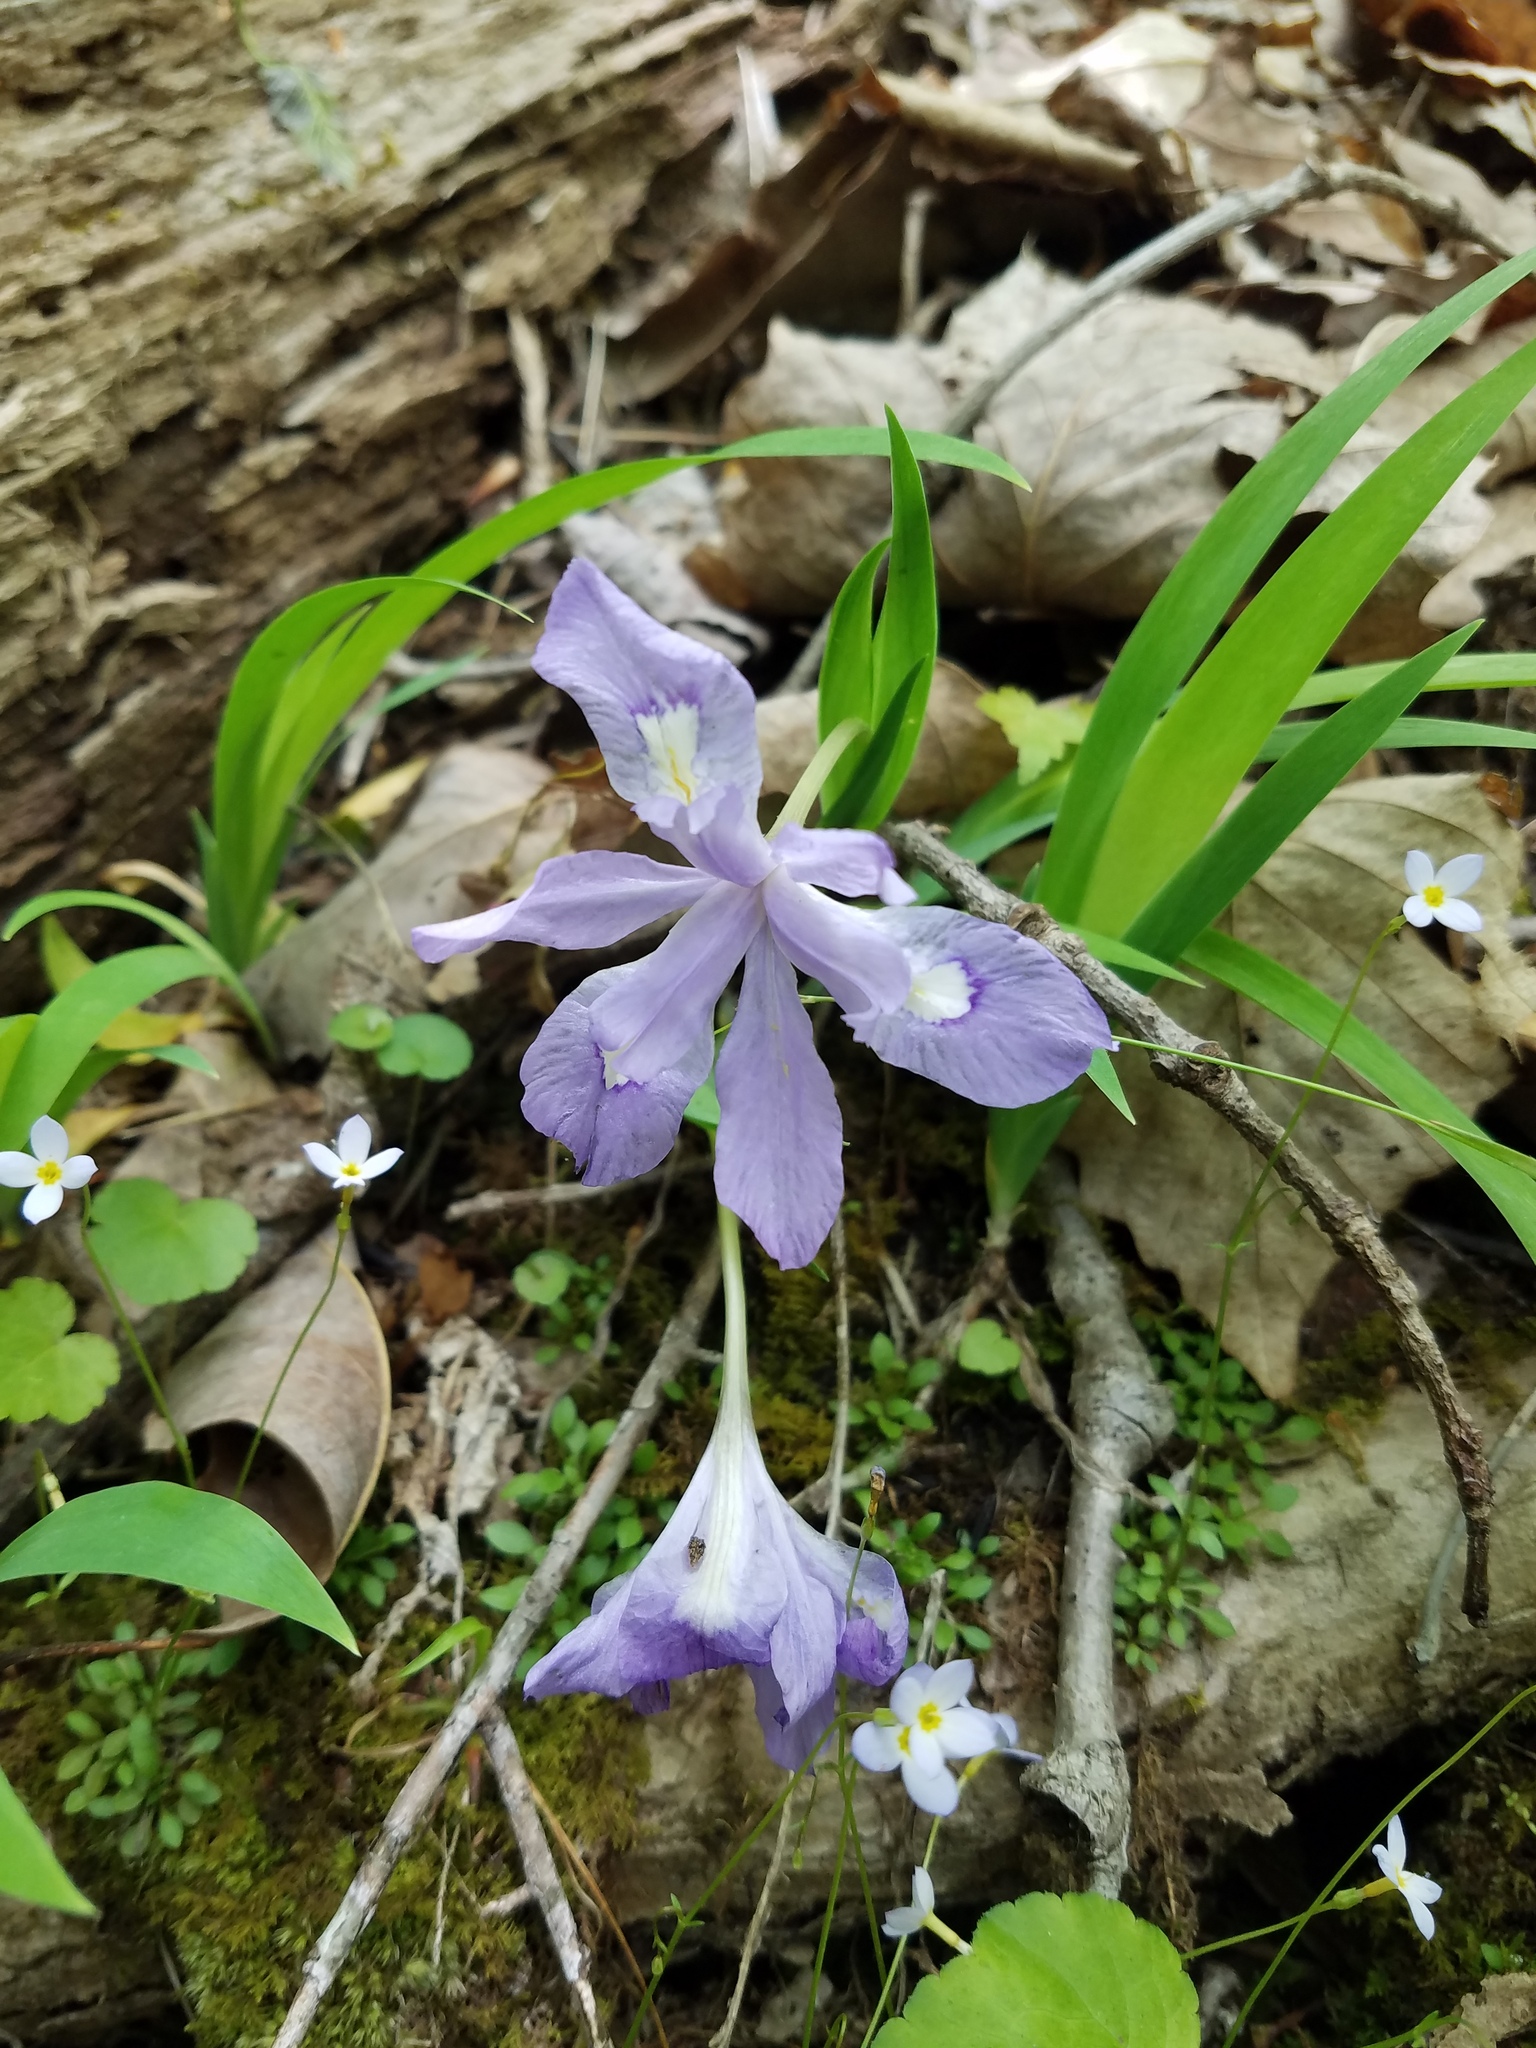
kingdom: Plantae
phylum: Tracheophyta
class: Liliopsida
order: Asparagales
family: Iridaceae
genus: Iris
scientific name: Iris cristata
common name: Crested iris
